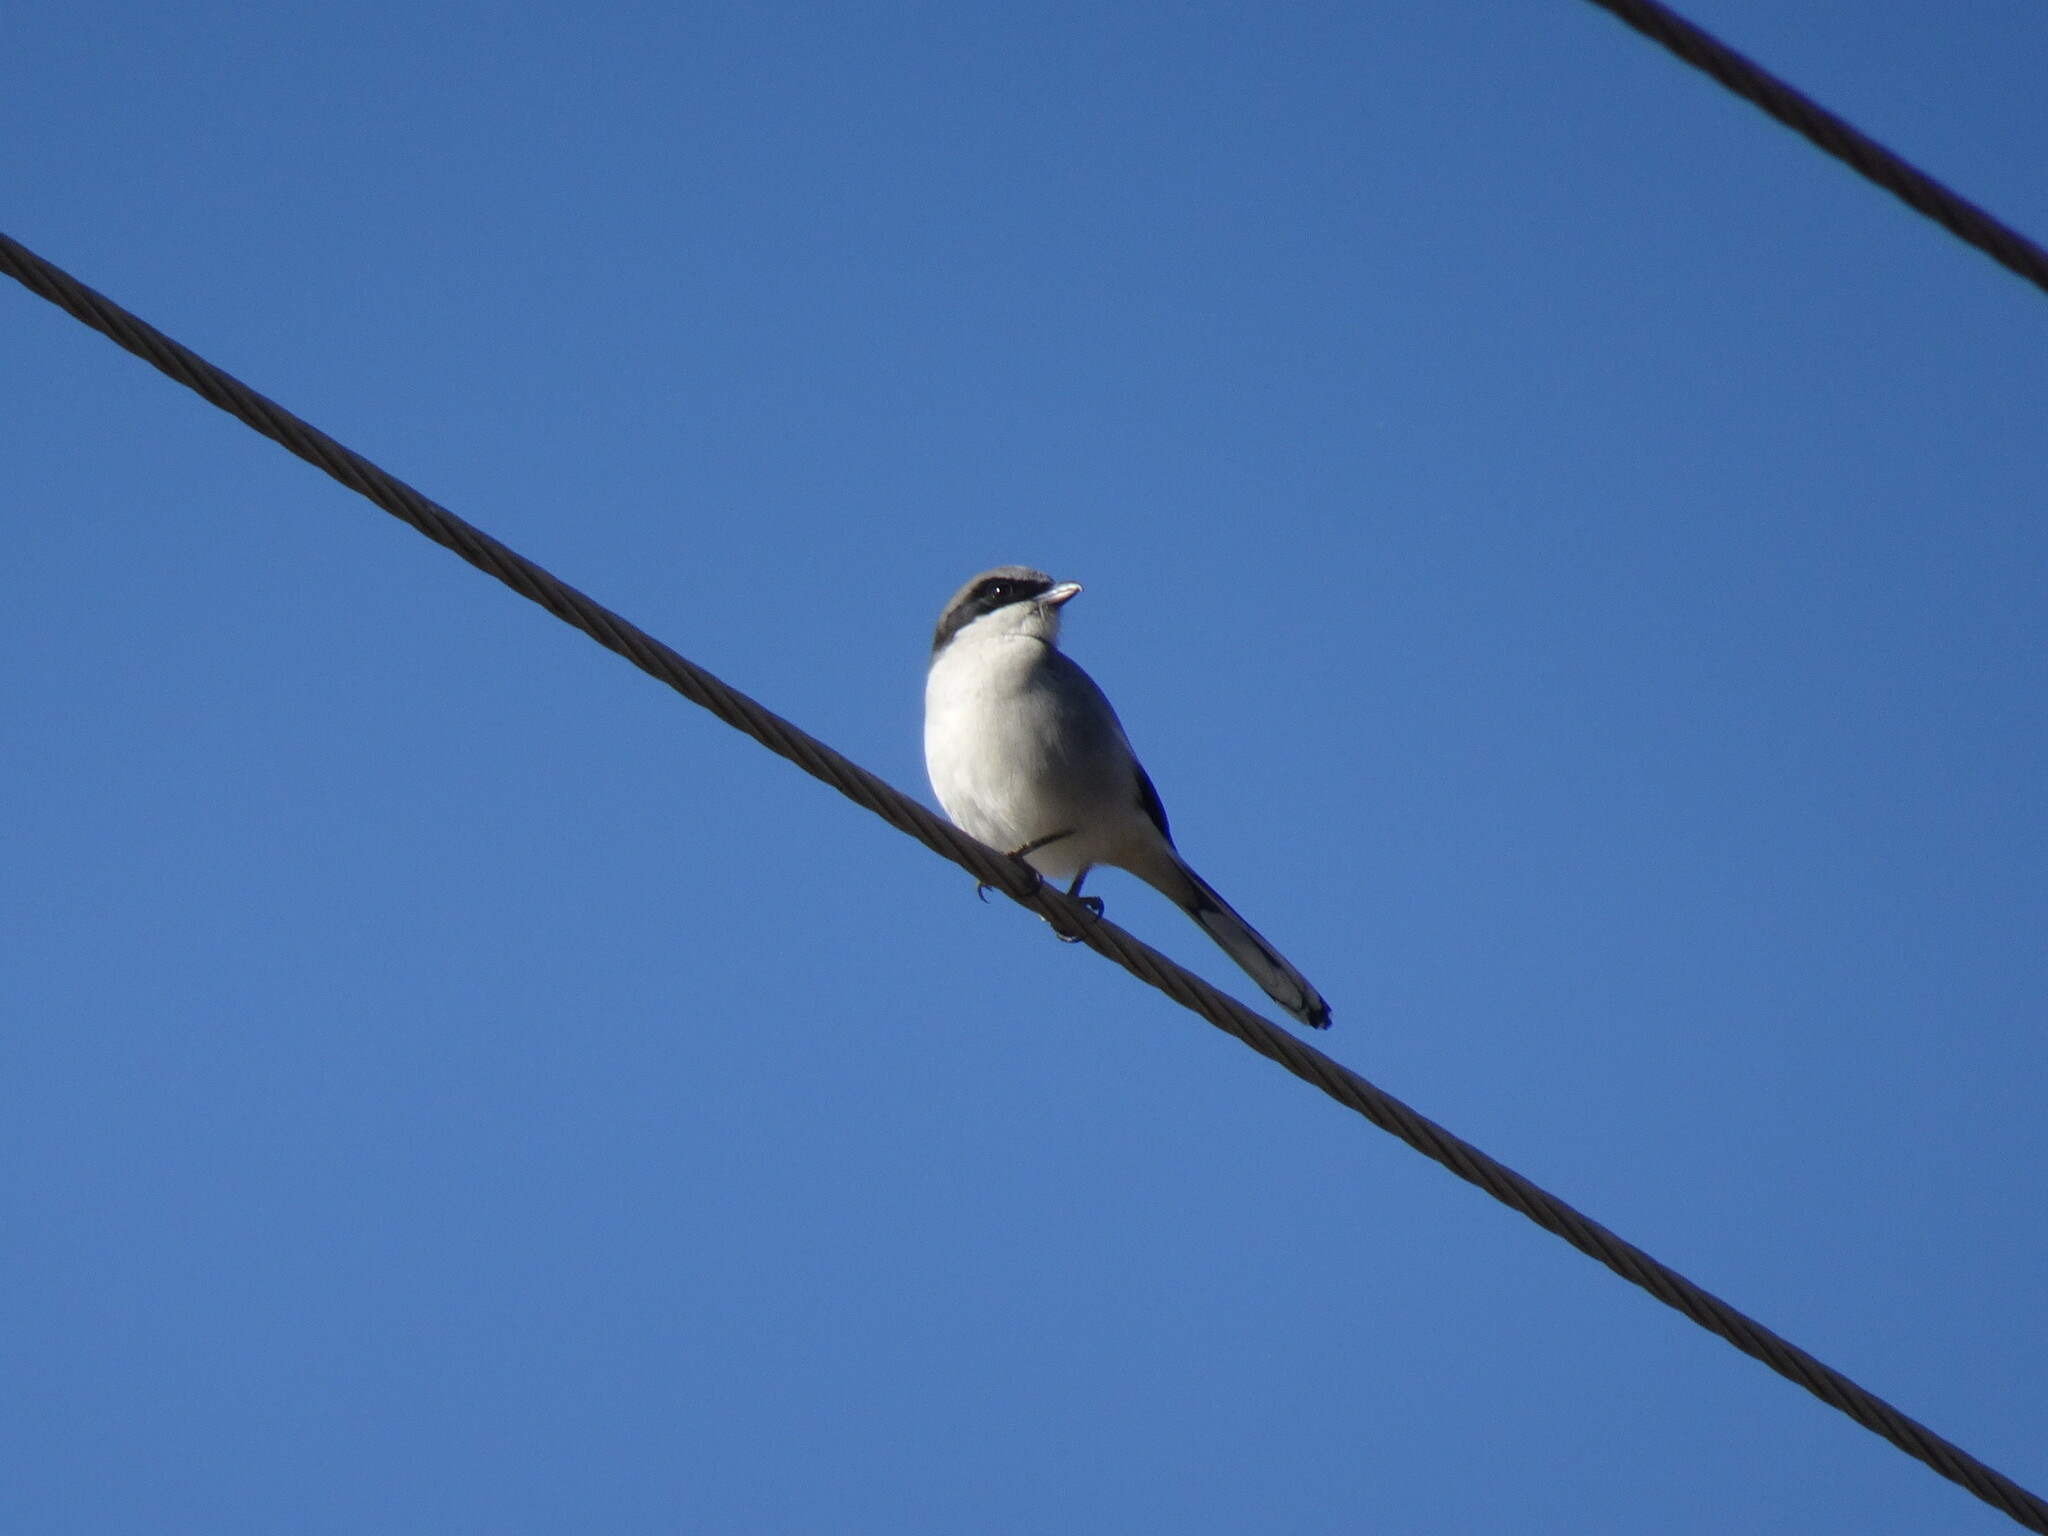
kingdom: Animalia
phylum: Chordata
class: Aves
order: Passeriformes
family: Laniidae
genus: Lanius
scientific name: Lanius ludovicianus
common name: Loggerhead shrike
